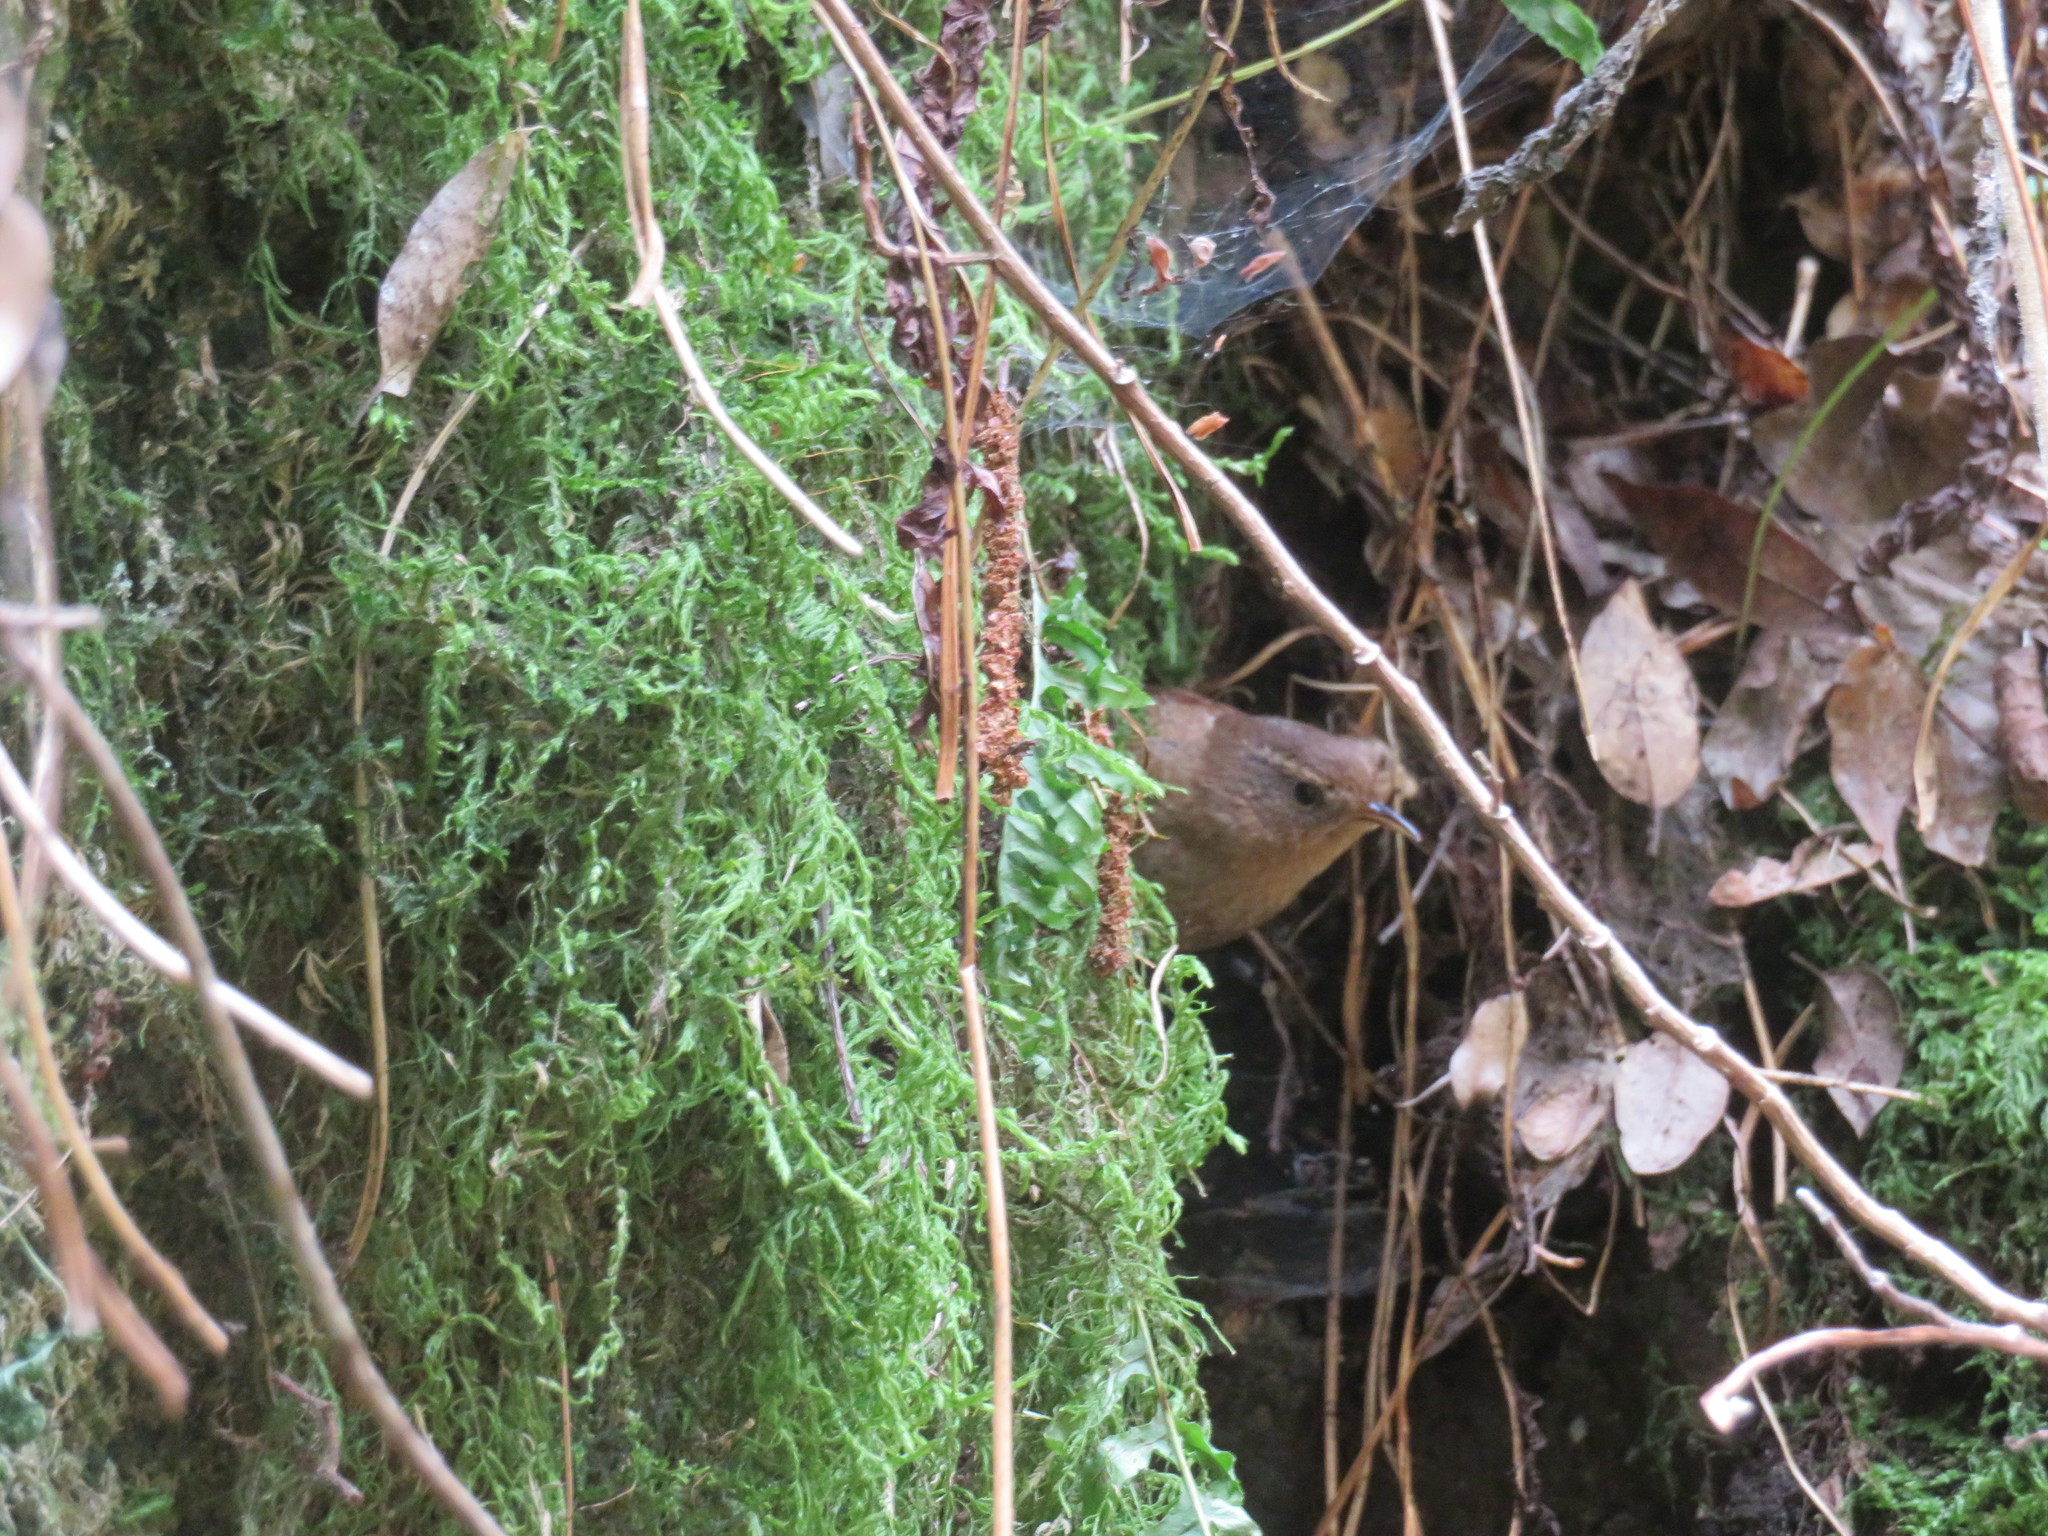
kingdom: Animalia
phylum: Chordata
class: Aves
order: Passeriformes
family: Troglodytidae
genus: Troglodytes
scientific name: Troglodytes pacificus
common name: Pacific wren
